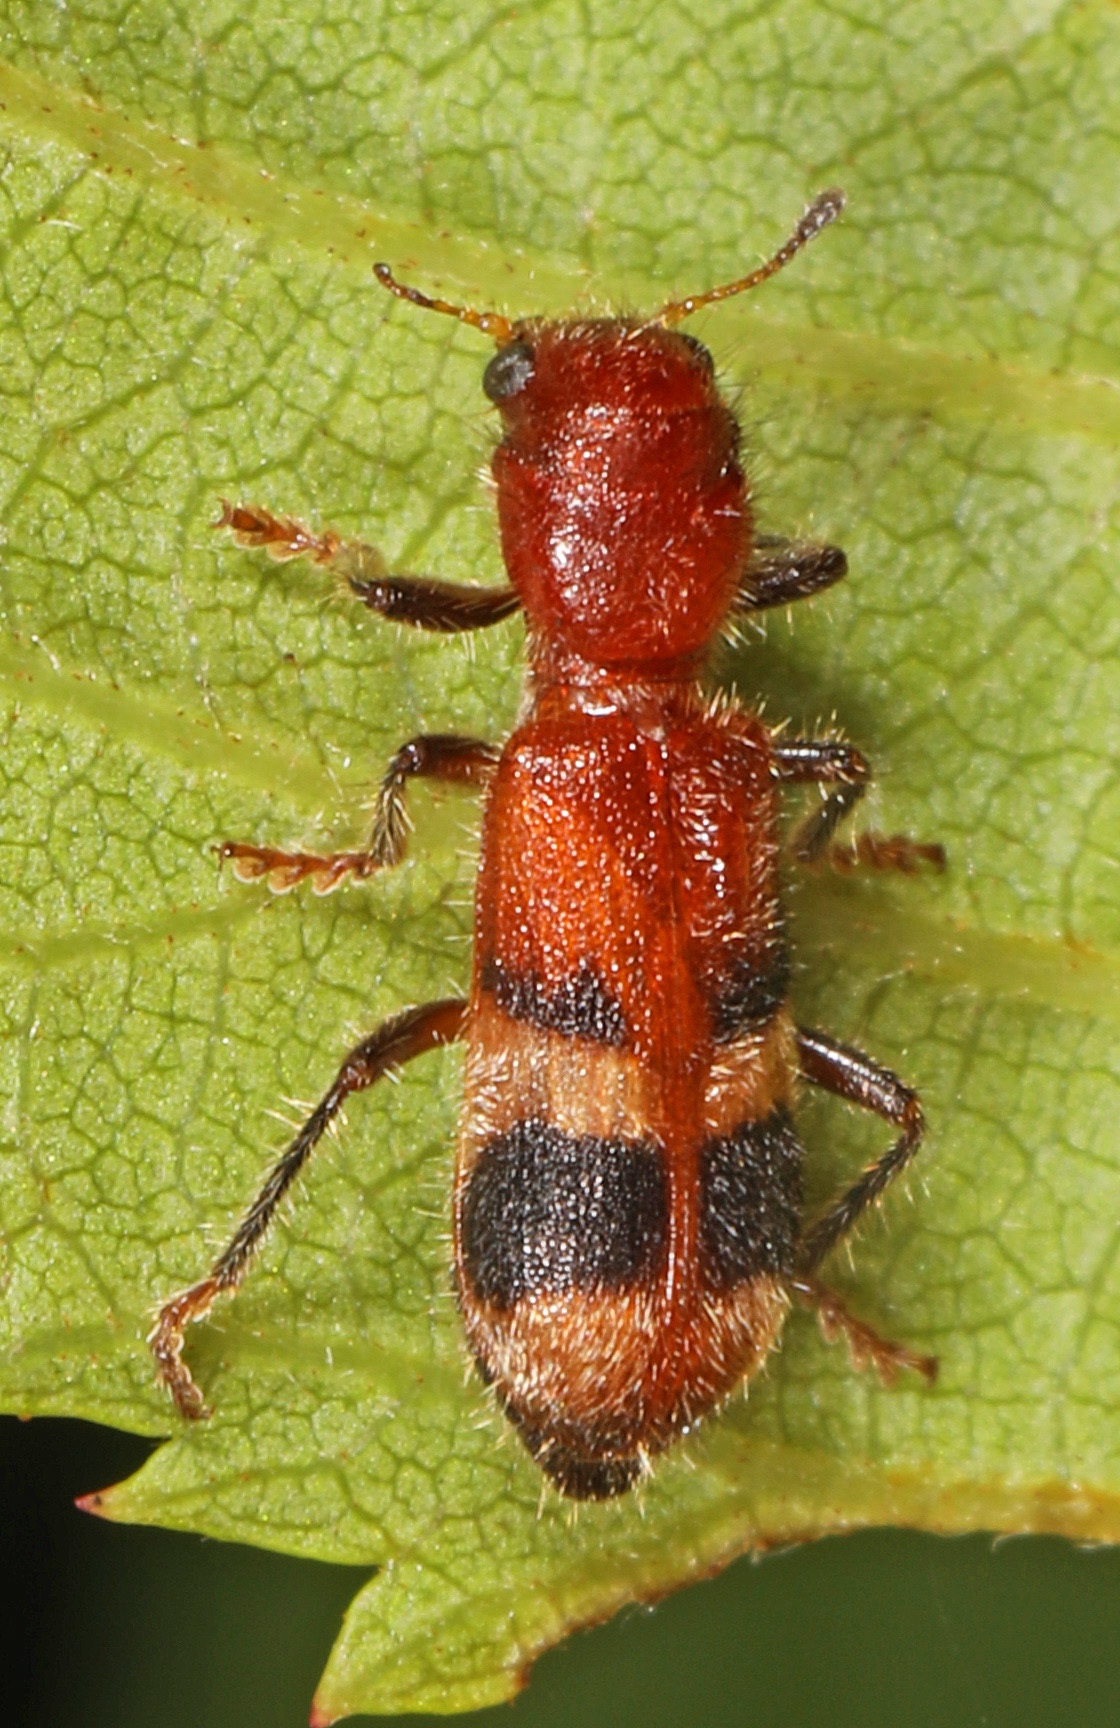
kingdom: Animalia
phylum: Arthropoda
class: Insecta
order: Coleoptera
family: Cleridae
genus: Enoclerus
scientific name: Enoclerus rosmarus
